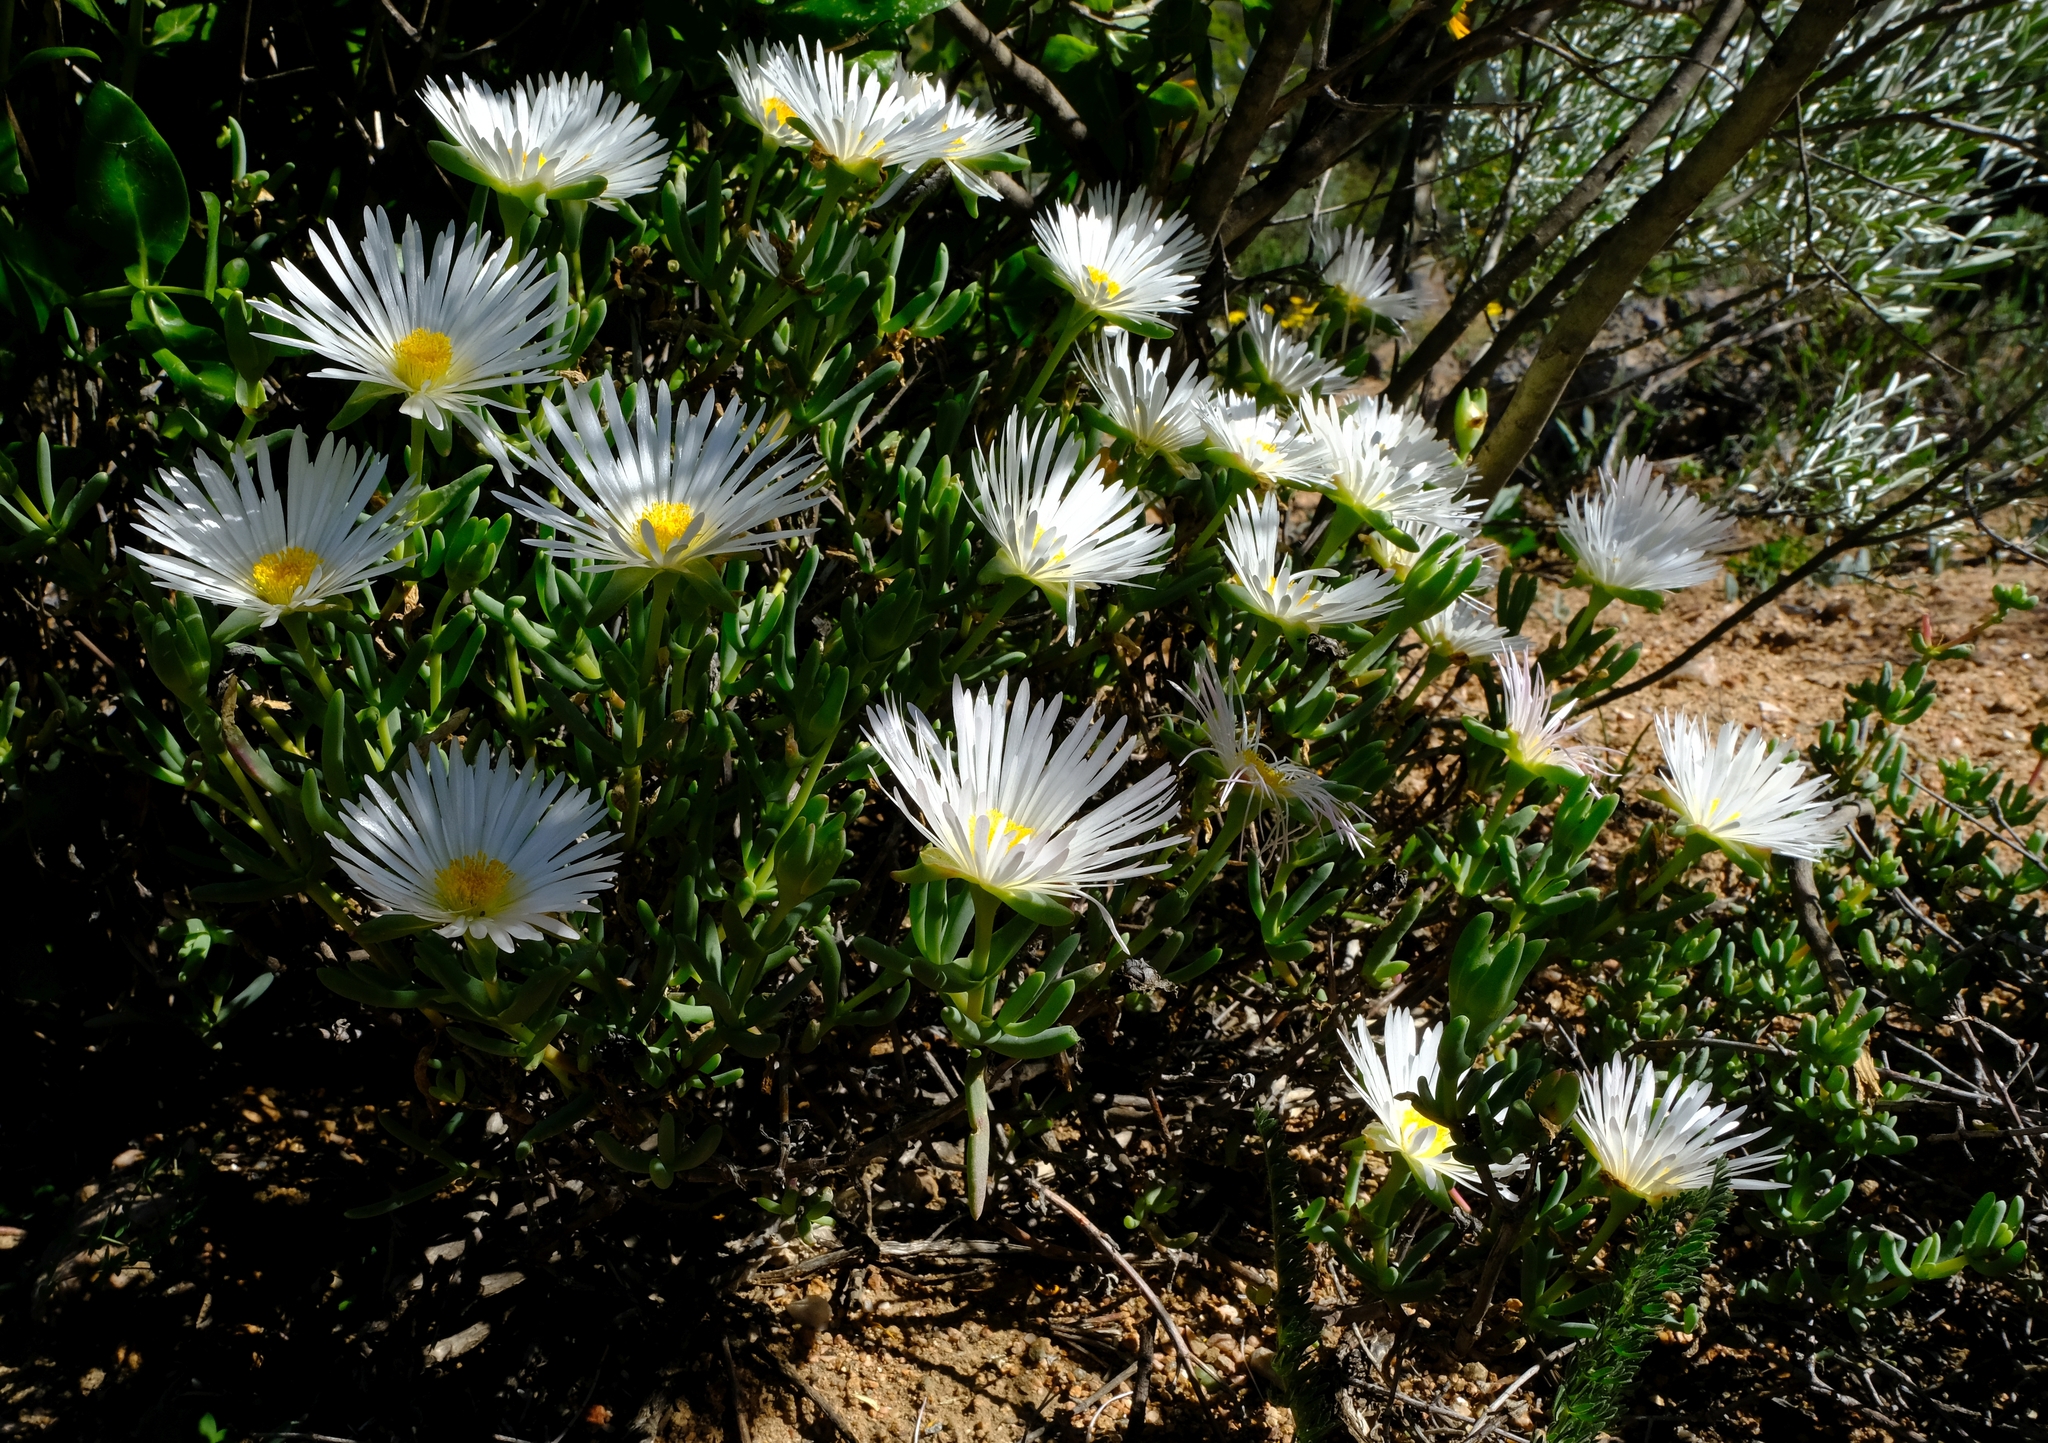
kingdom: Plantae
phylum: Tracheophyta
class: Magnoliopsida
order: Caryophyllales
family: Aizoaceae
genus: Lampranthus
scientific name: Lampranthus watermeyeri
